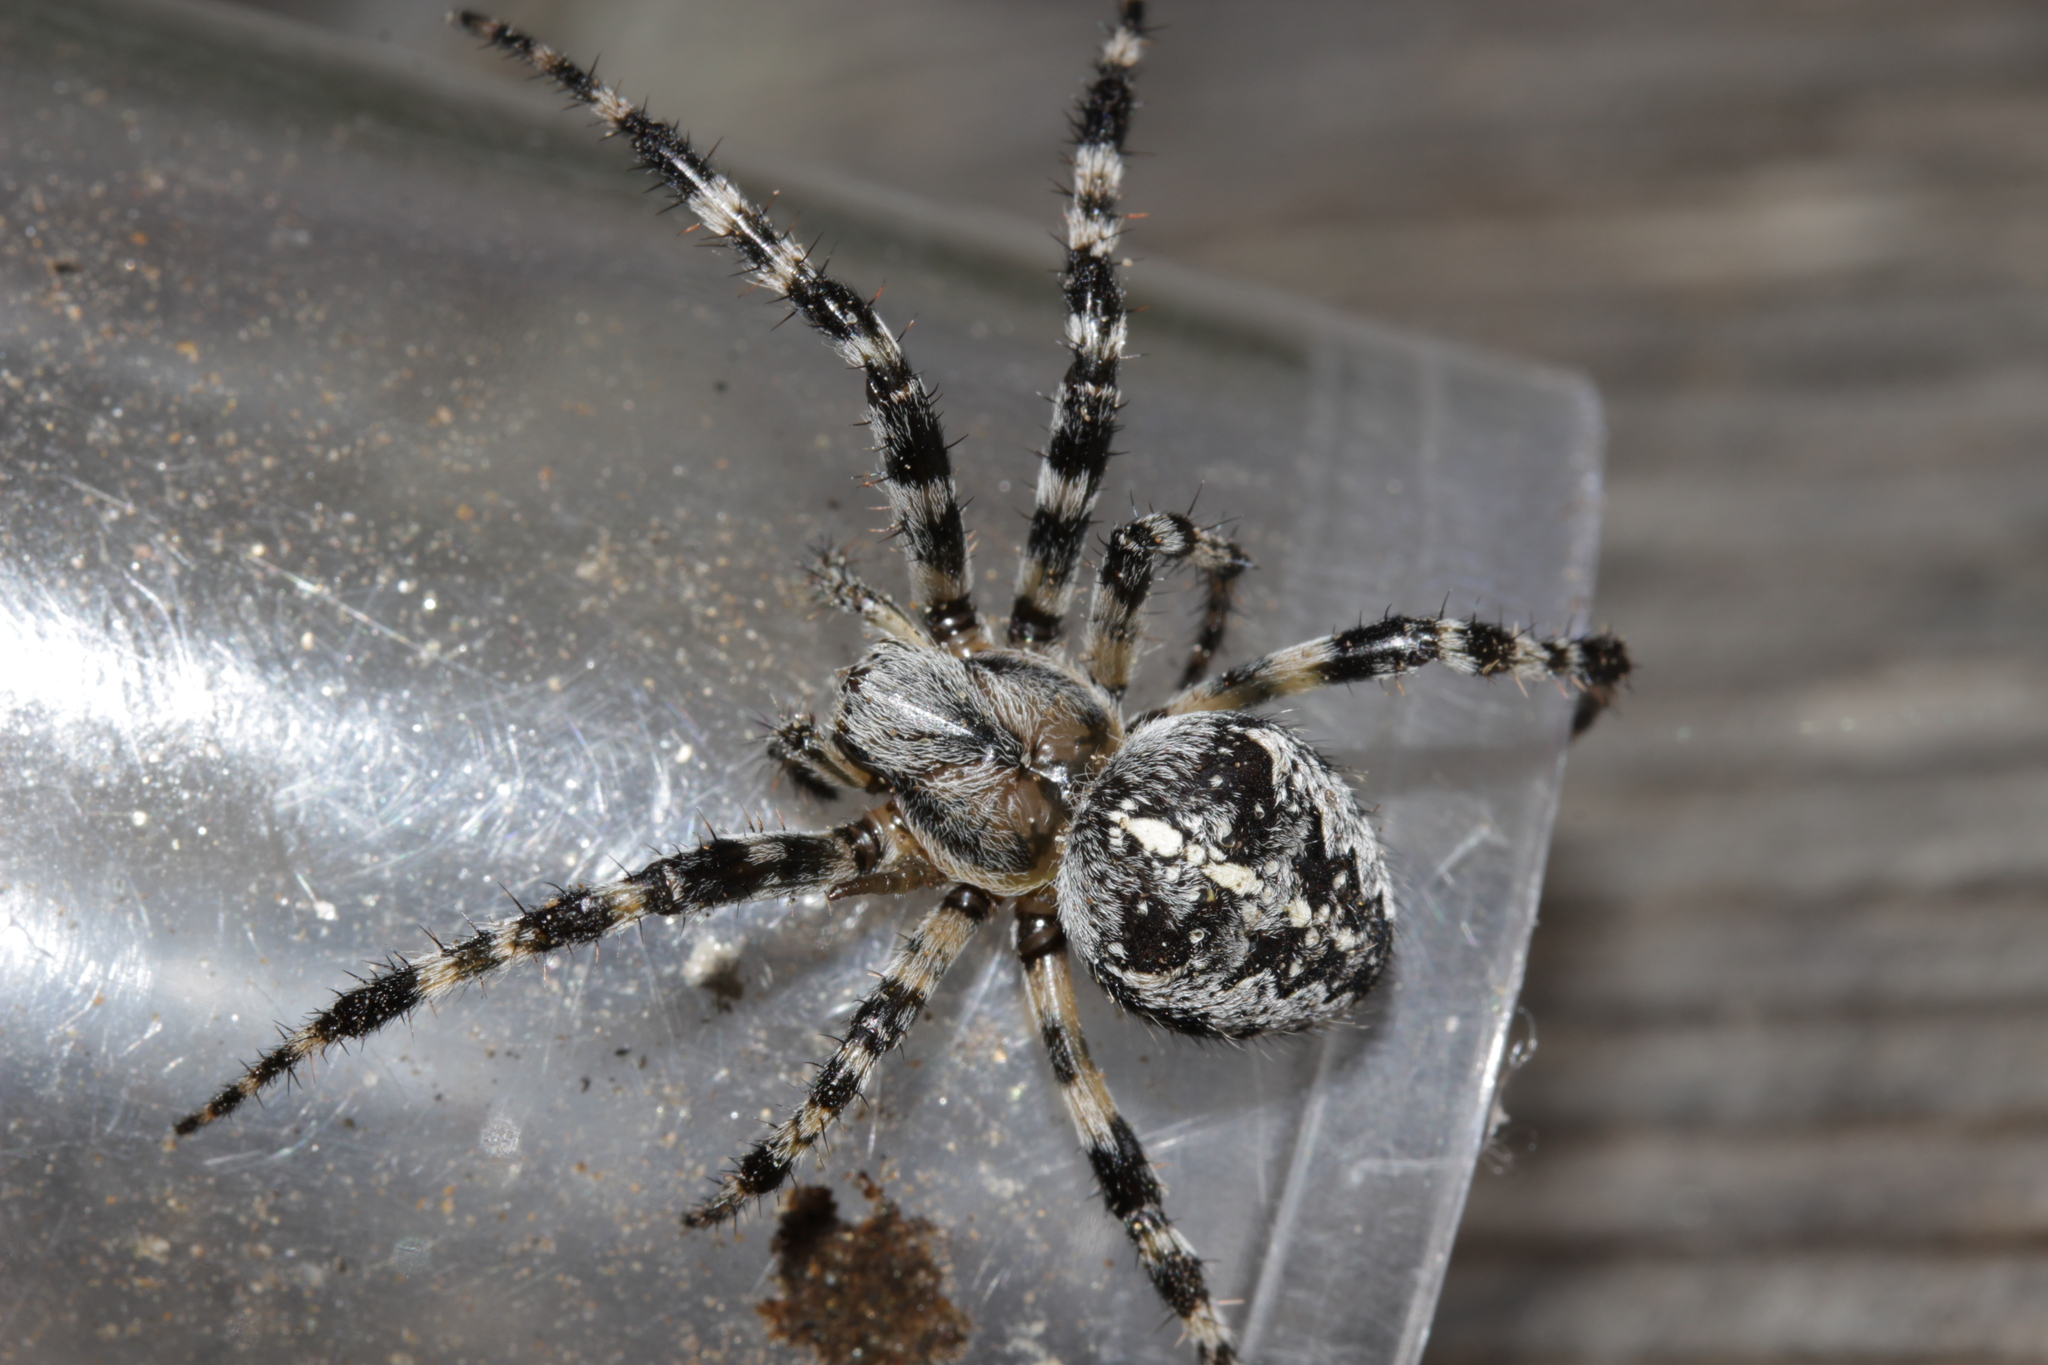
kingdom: Animalia
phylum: Arthropoda
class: Arachnida
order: Araneae
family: Araneidae
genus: Araneus
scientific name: Araneus diadematus
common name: Cross orbweaver
